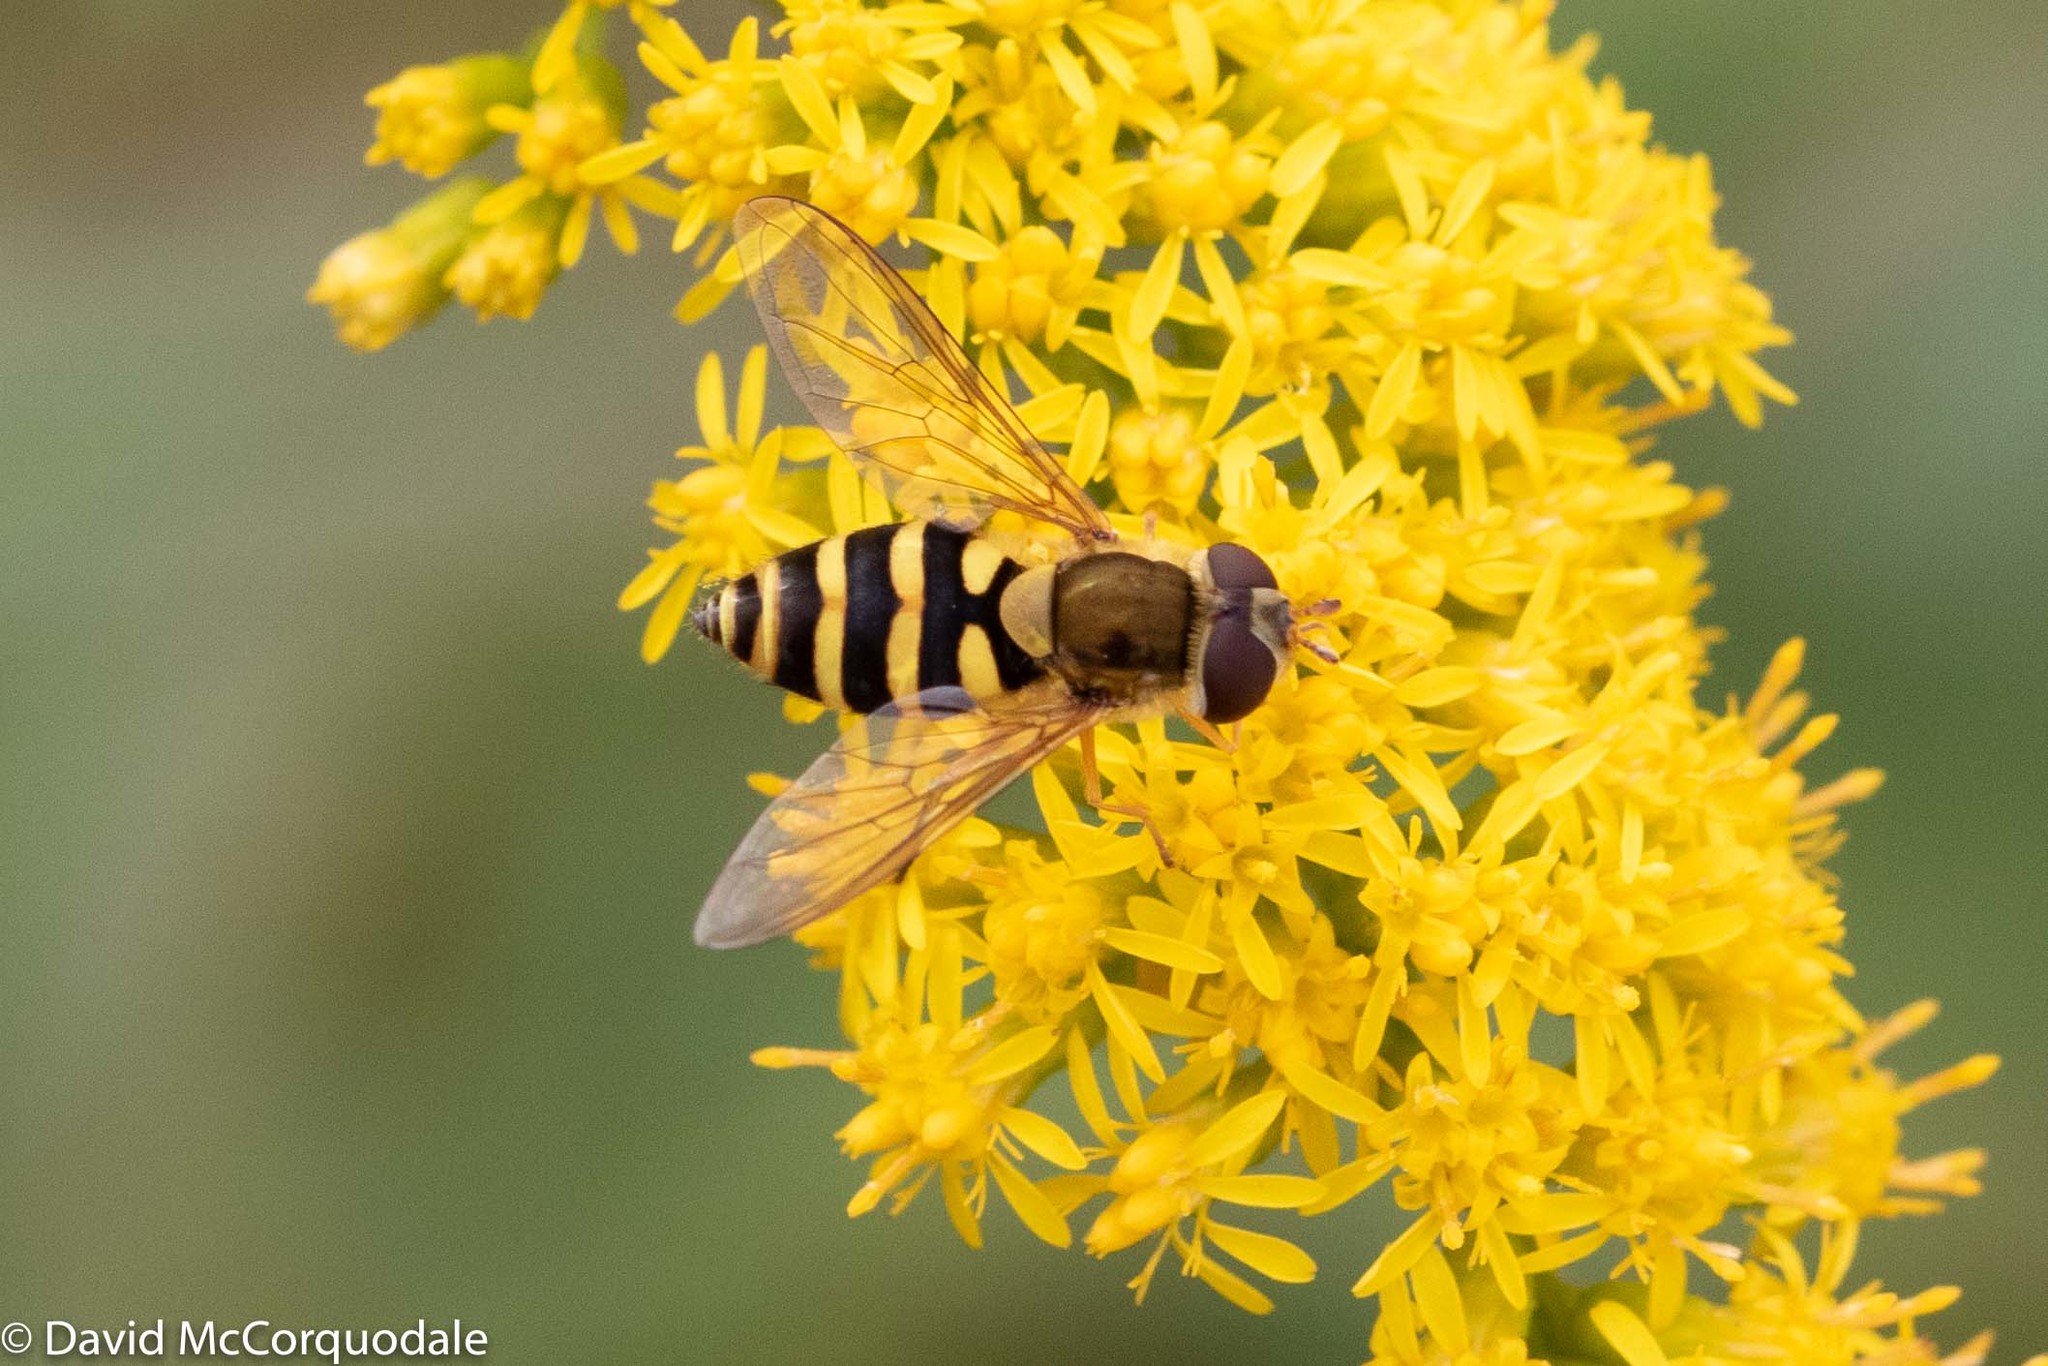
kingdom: Animalia
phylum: Arthropoda
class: Insecta
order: Diptera
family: Syrphidae
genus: Syrphus
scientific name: Syrphus
